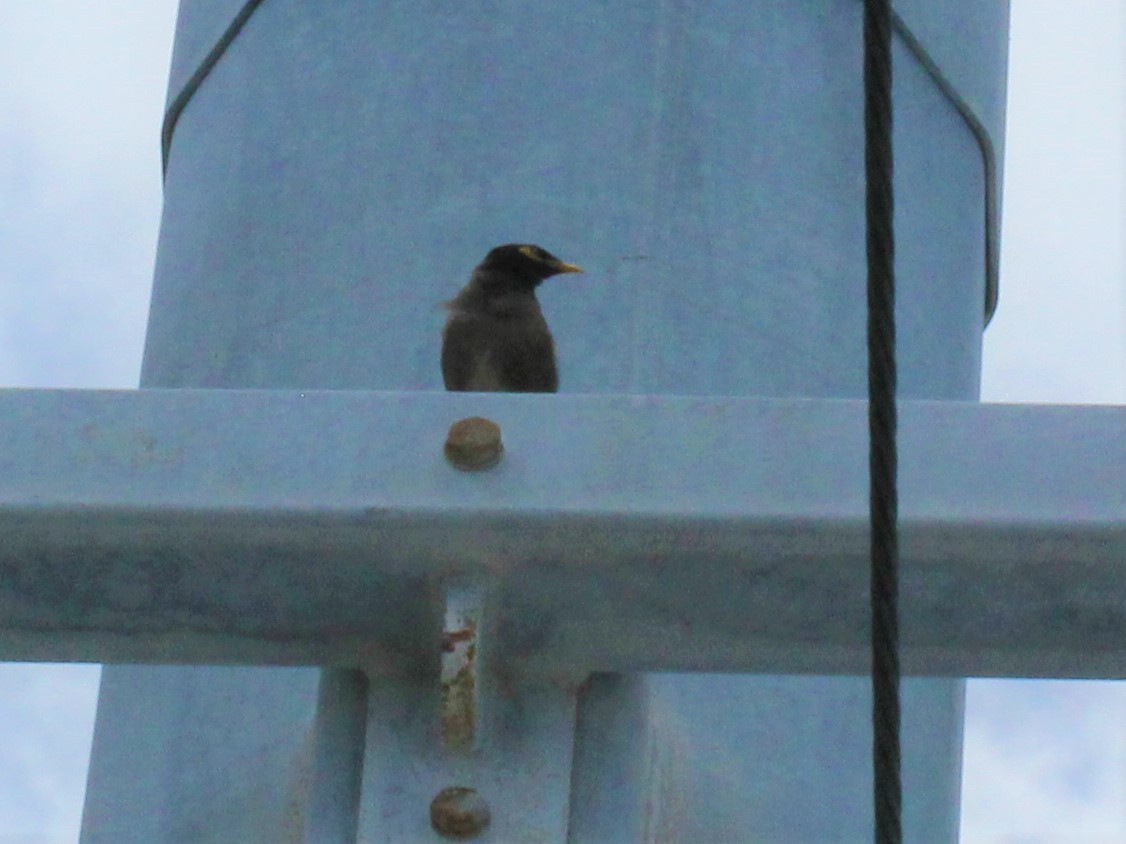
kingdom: Animalia
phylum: Chordata
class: Aves
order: Passeriformes
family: Sturnidae
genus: Acridotheres
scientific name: Acridotheres tristis
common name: Common myna
